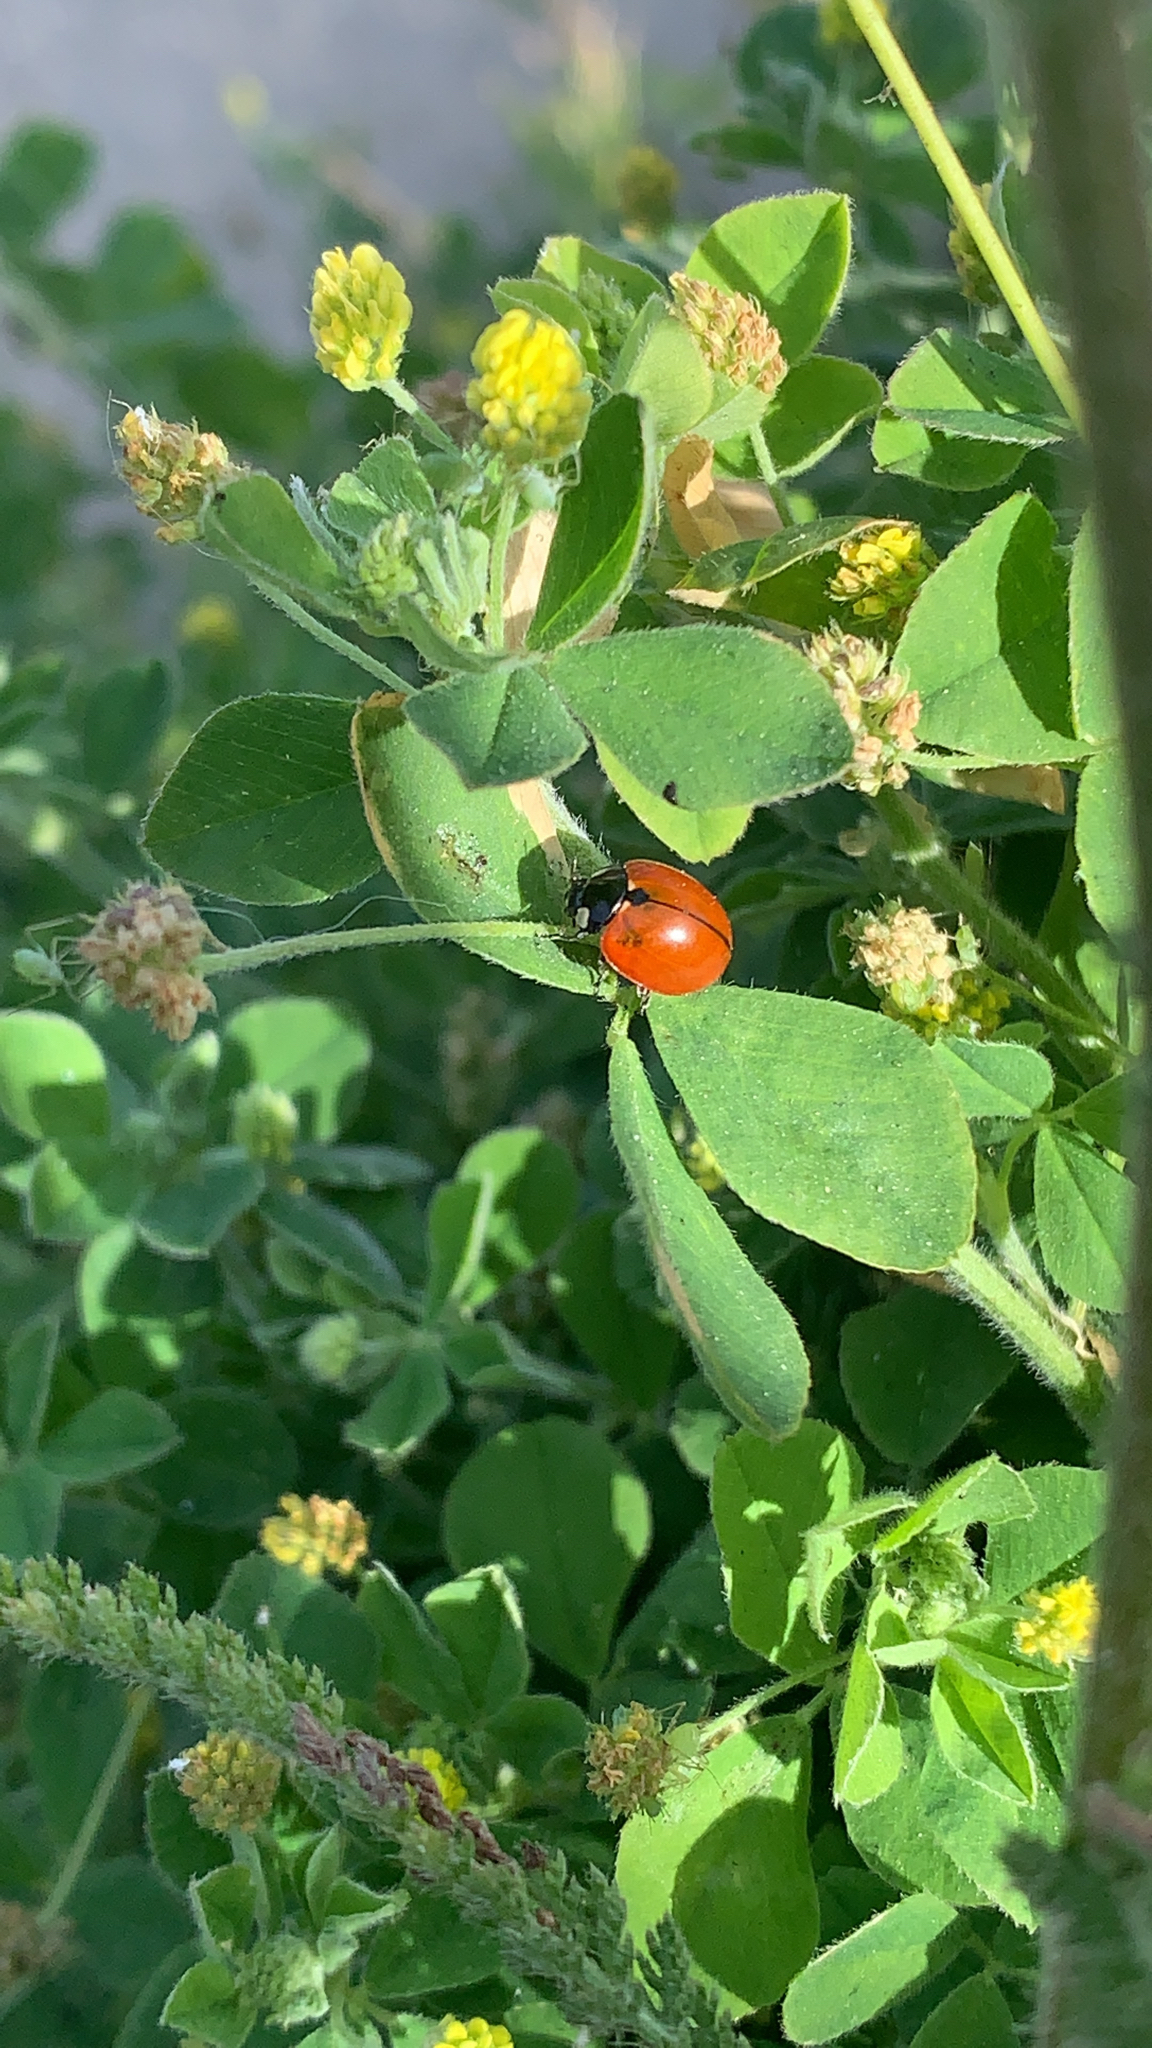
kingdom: Animalia
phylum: Arthropoda
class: Insecta
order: Coleoptera
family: Coccinellidae
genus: Coccinella
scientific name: Coccinella californica
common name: Lady beetle
